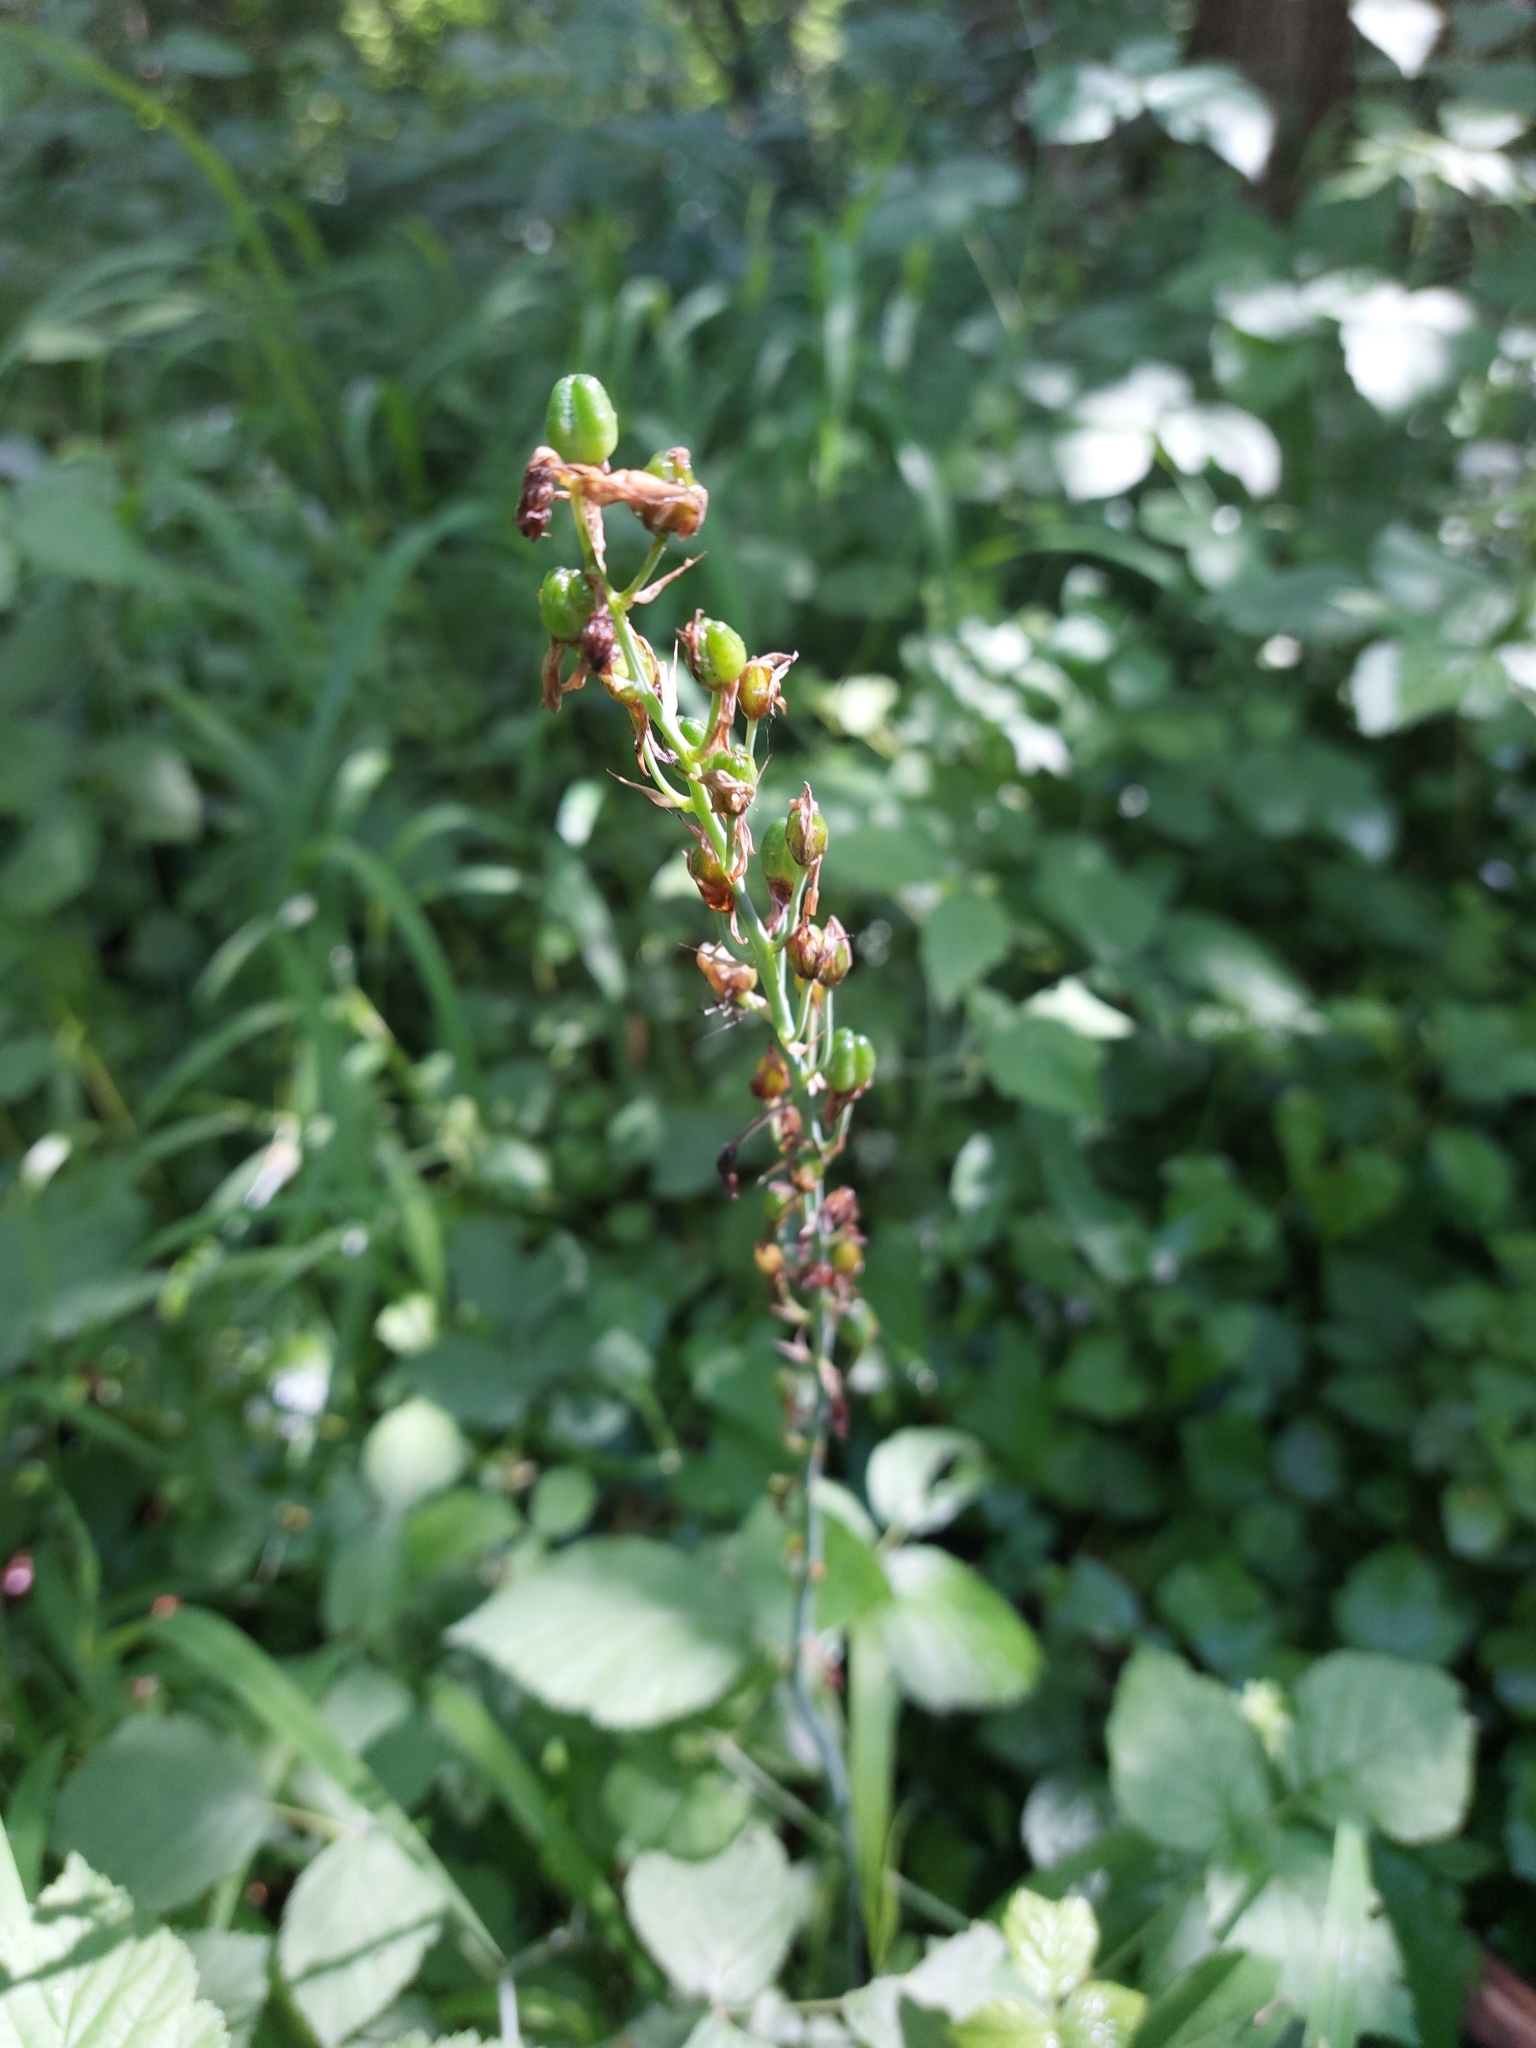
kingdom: Plantae
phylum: Tracheophyta
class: Liliopsida
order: Asparagales
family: Asparagaceae
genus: Ornithogalum
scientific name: Ornithogalum pyrenaicum
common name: Spiked star-of-bethlehem
